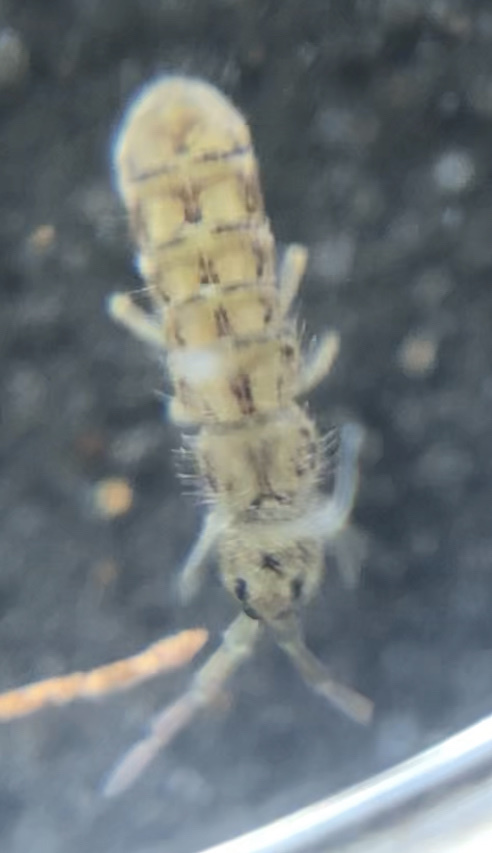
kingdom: Animalia
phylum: Arthropoda
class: Collembola
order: Entomobryomorpha
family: Isotomidae
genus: Isotoma
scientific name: Isotoma delta
